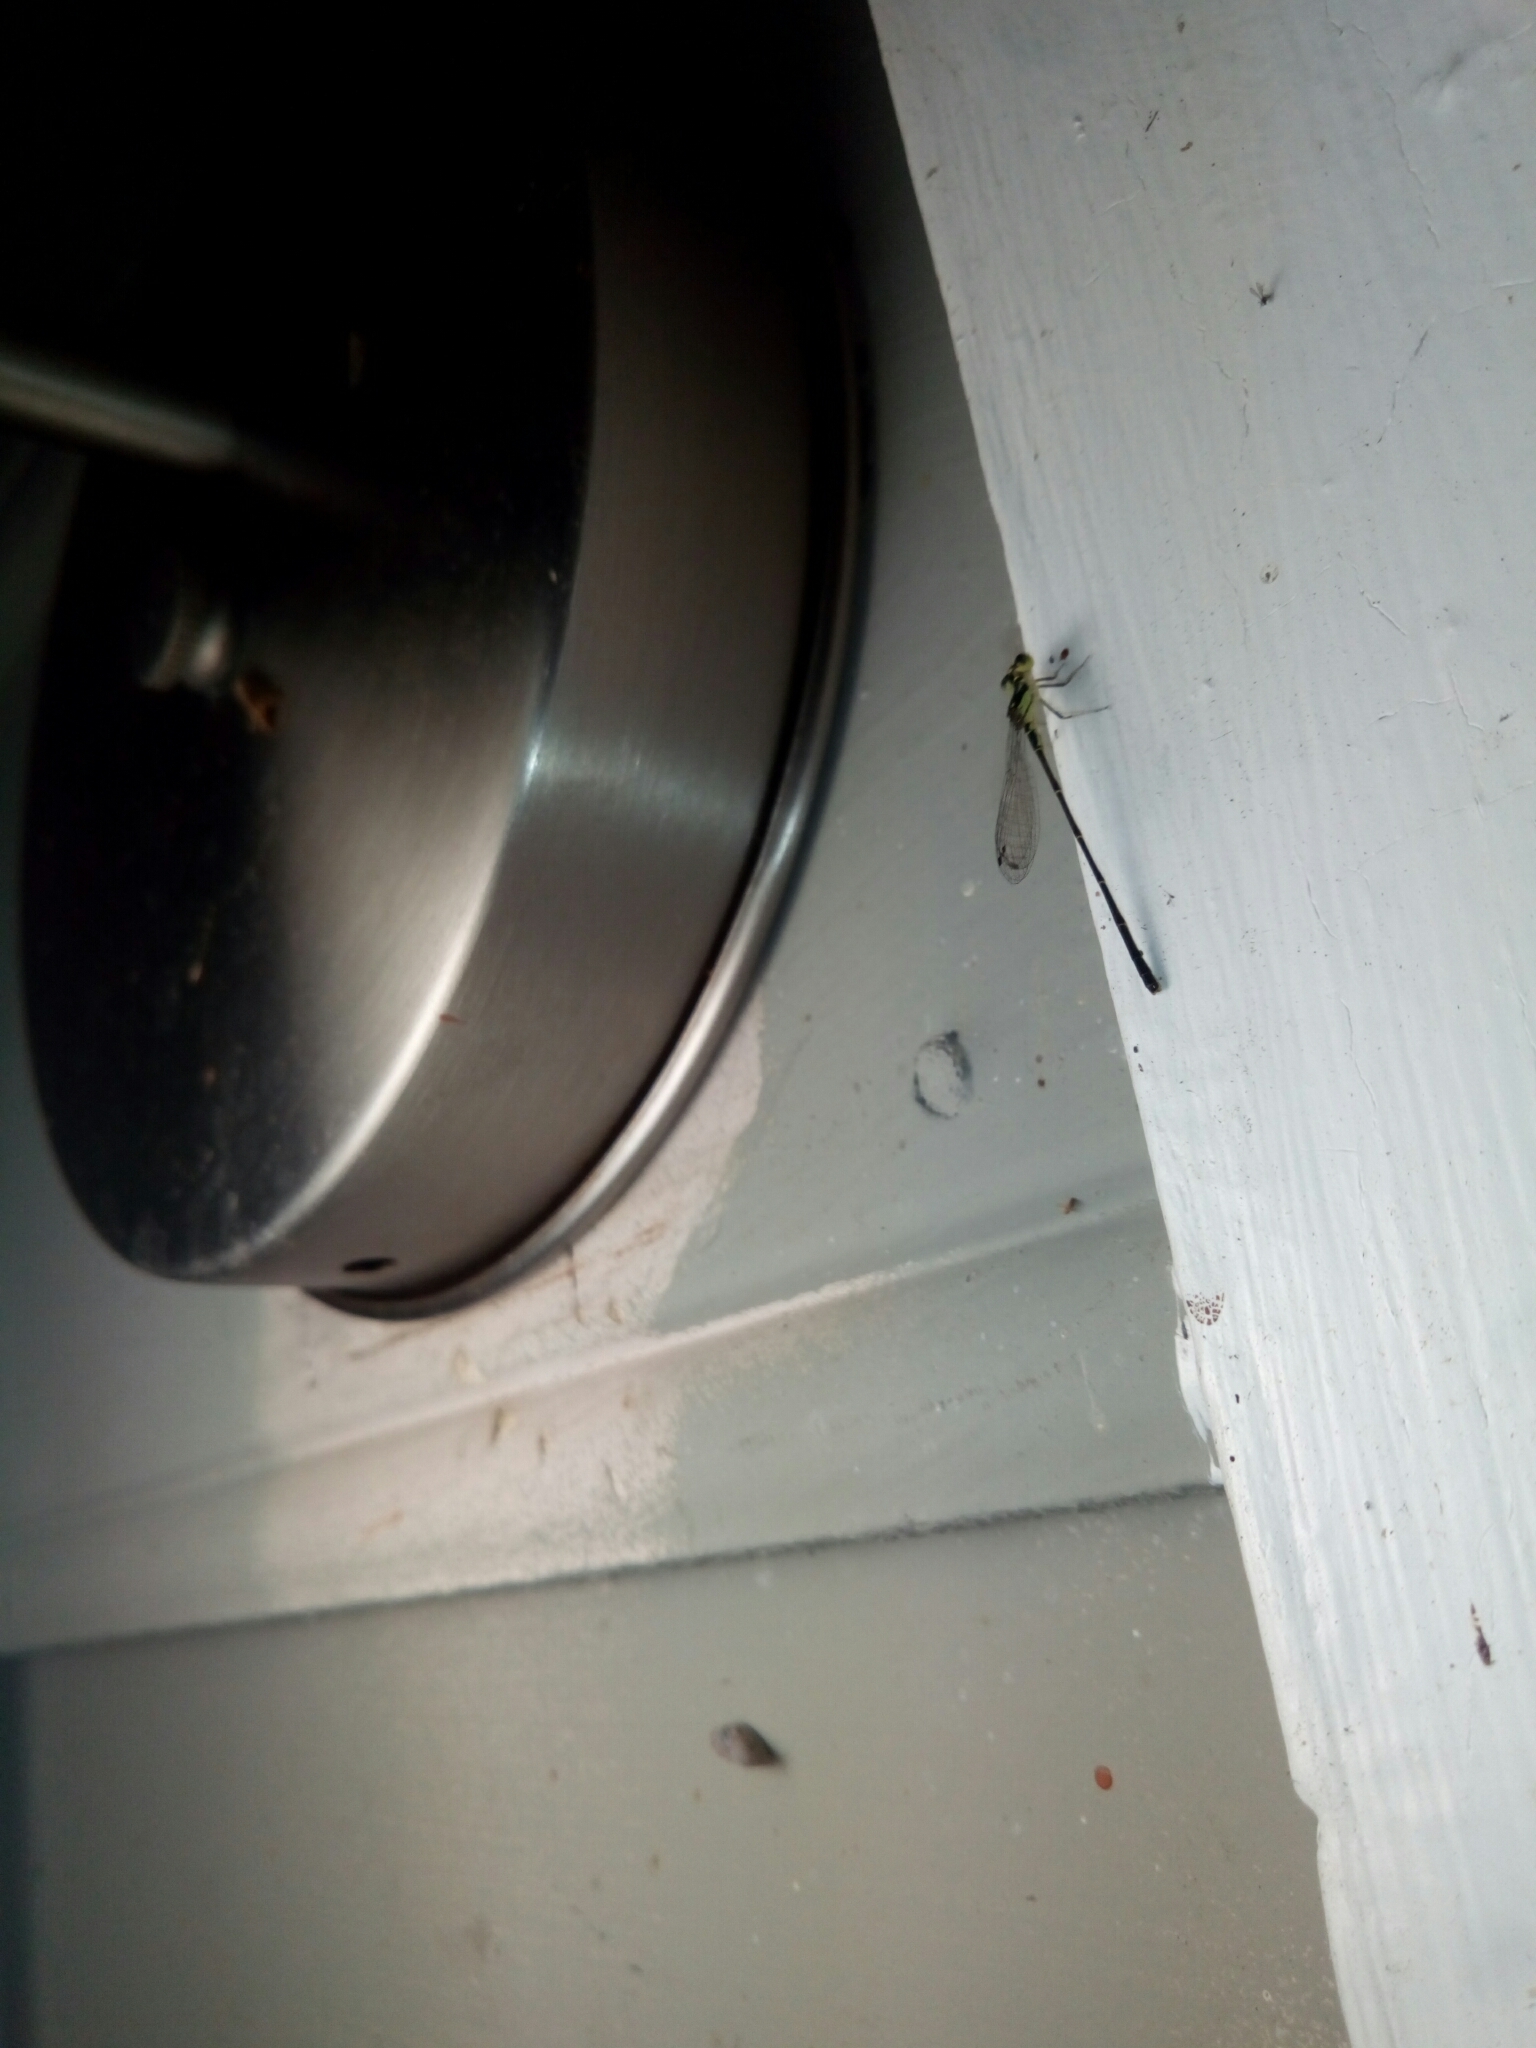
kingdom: Animalia
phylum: Arthropoda
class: Insecta
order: Odonata
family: Coenagrionidae
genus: Ischnura
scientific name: Ischnura posita
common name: Fragile forktail
